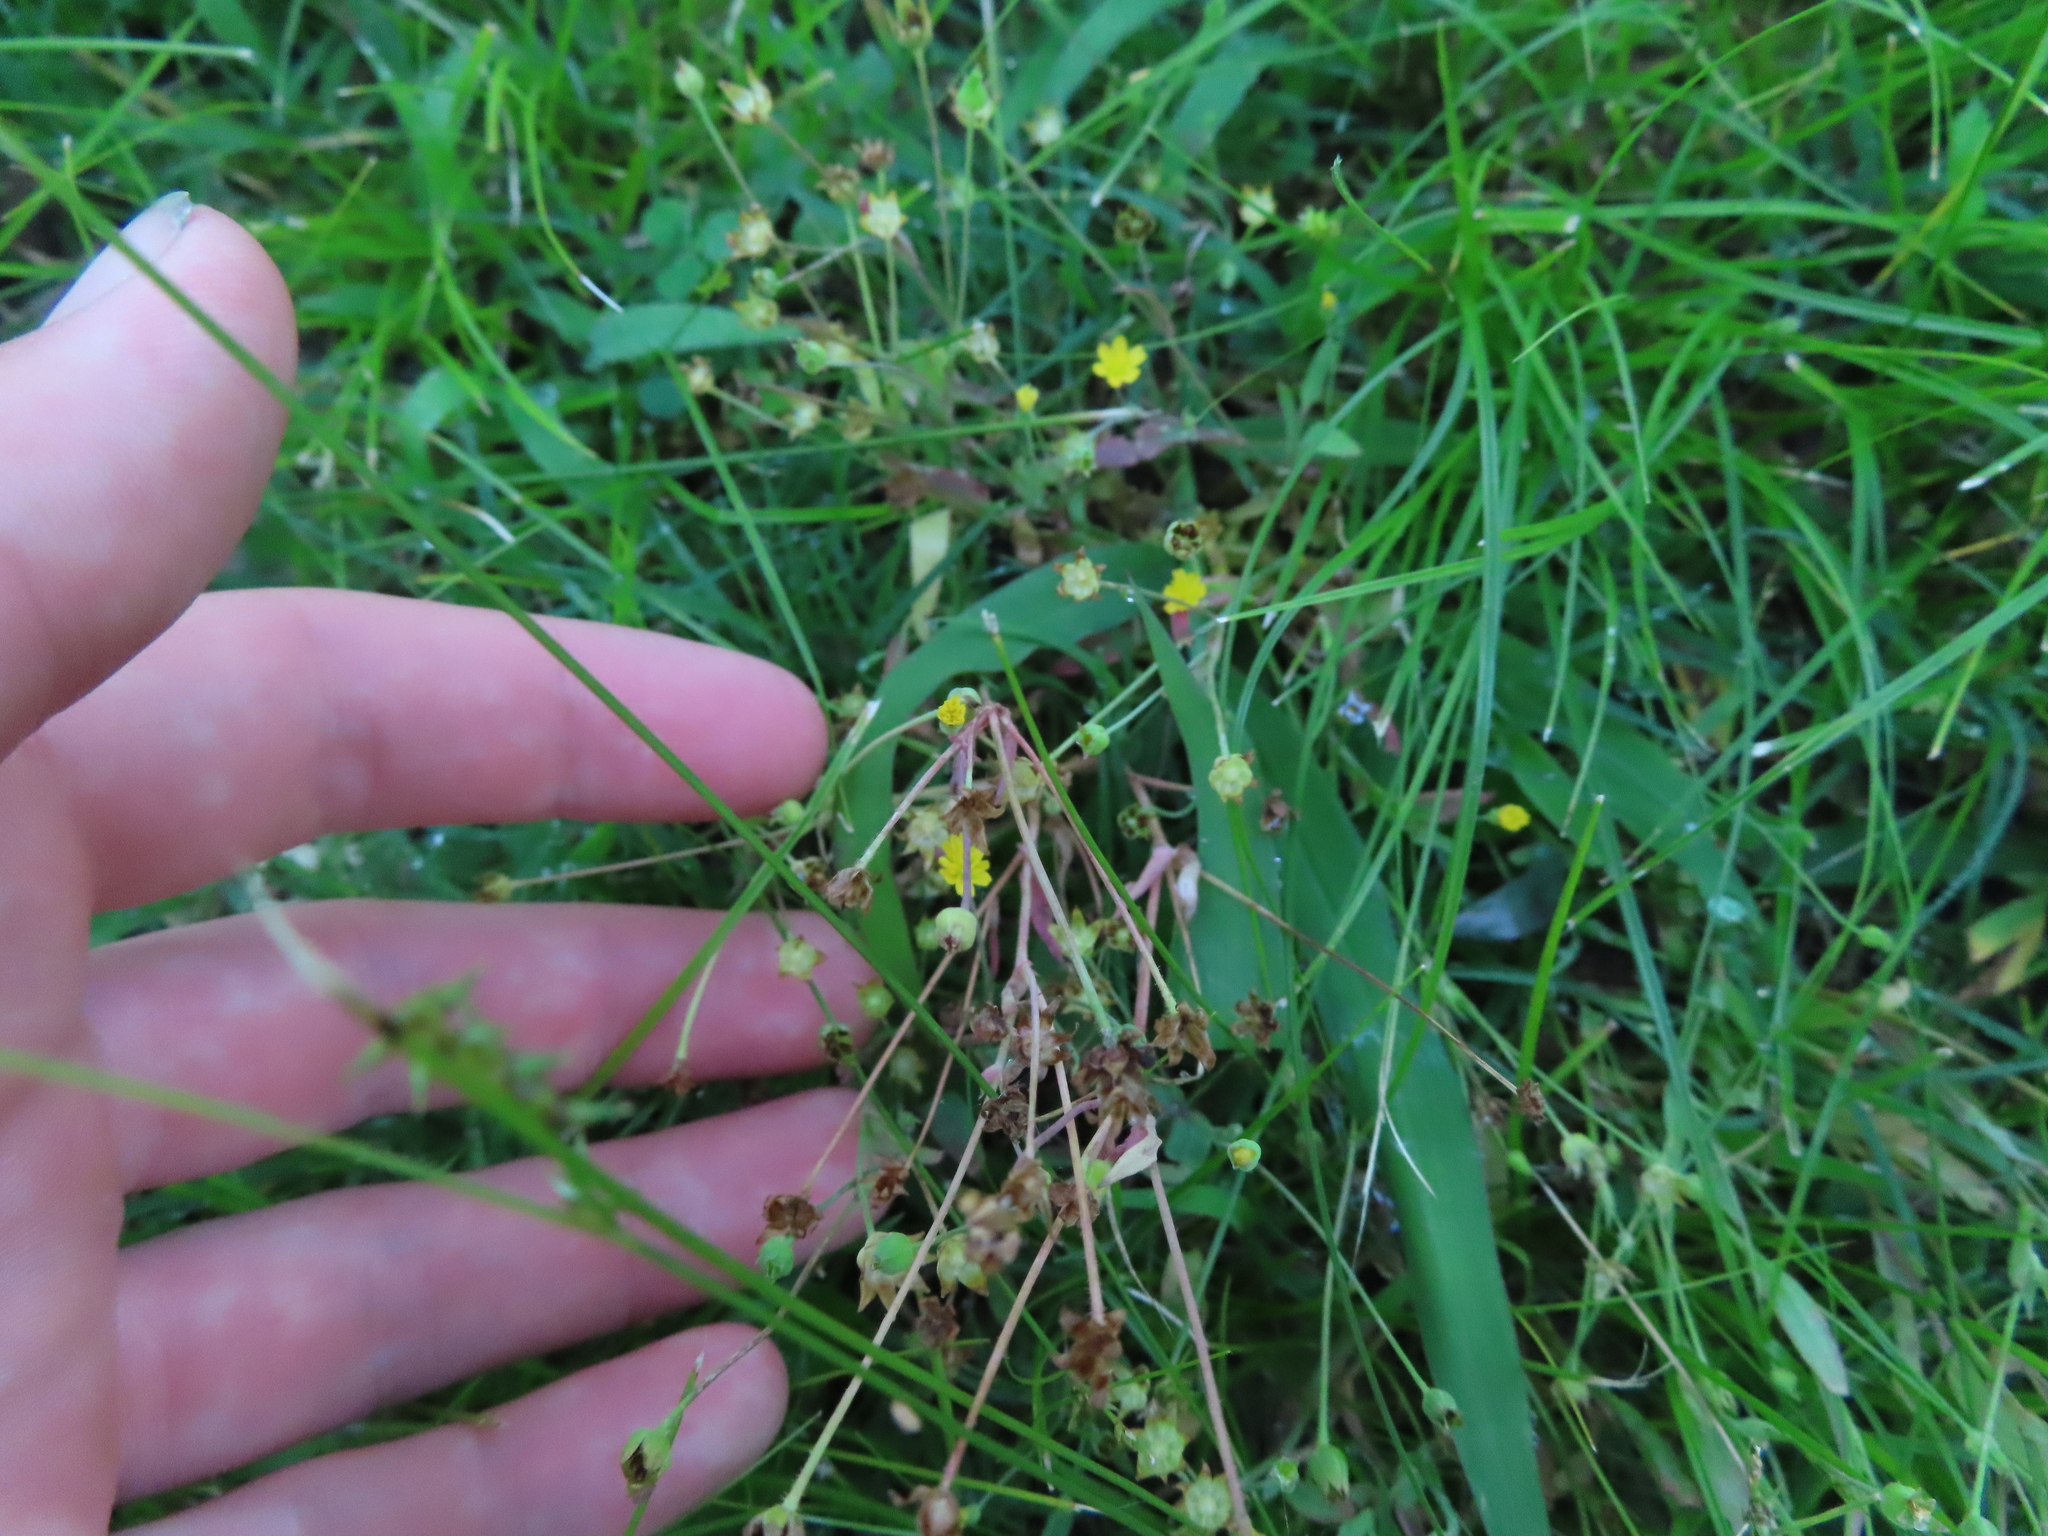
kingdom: Plantae
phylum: Tracheophyta
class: Magnoliopsida
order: Asterales
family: Asteraceae
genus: Krigia
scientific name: Krigia cespitosa
